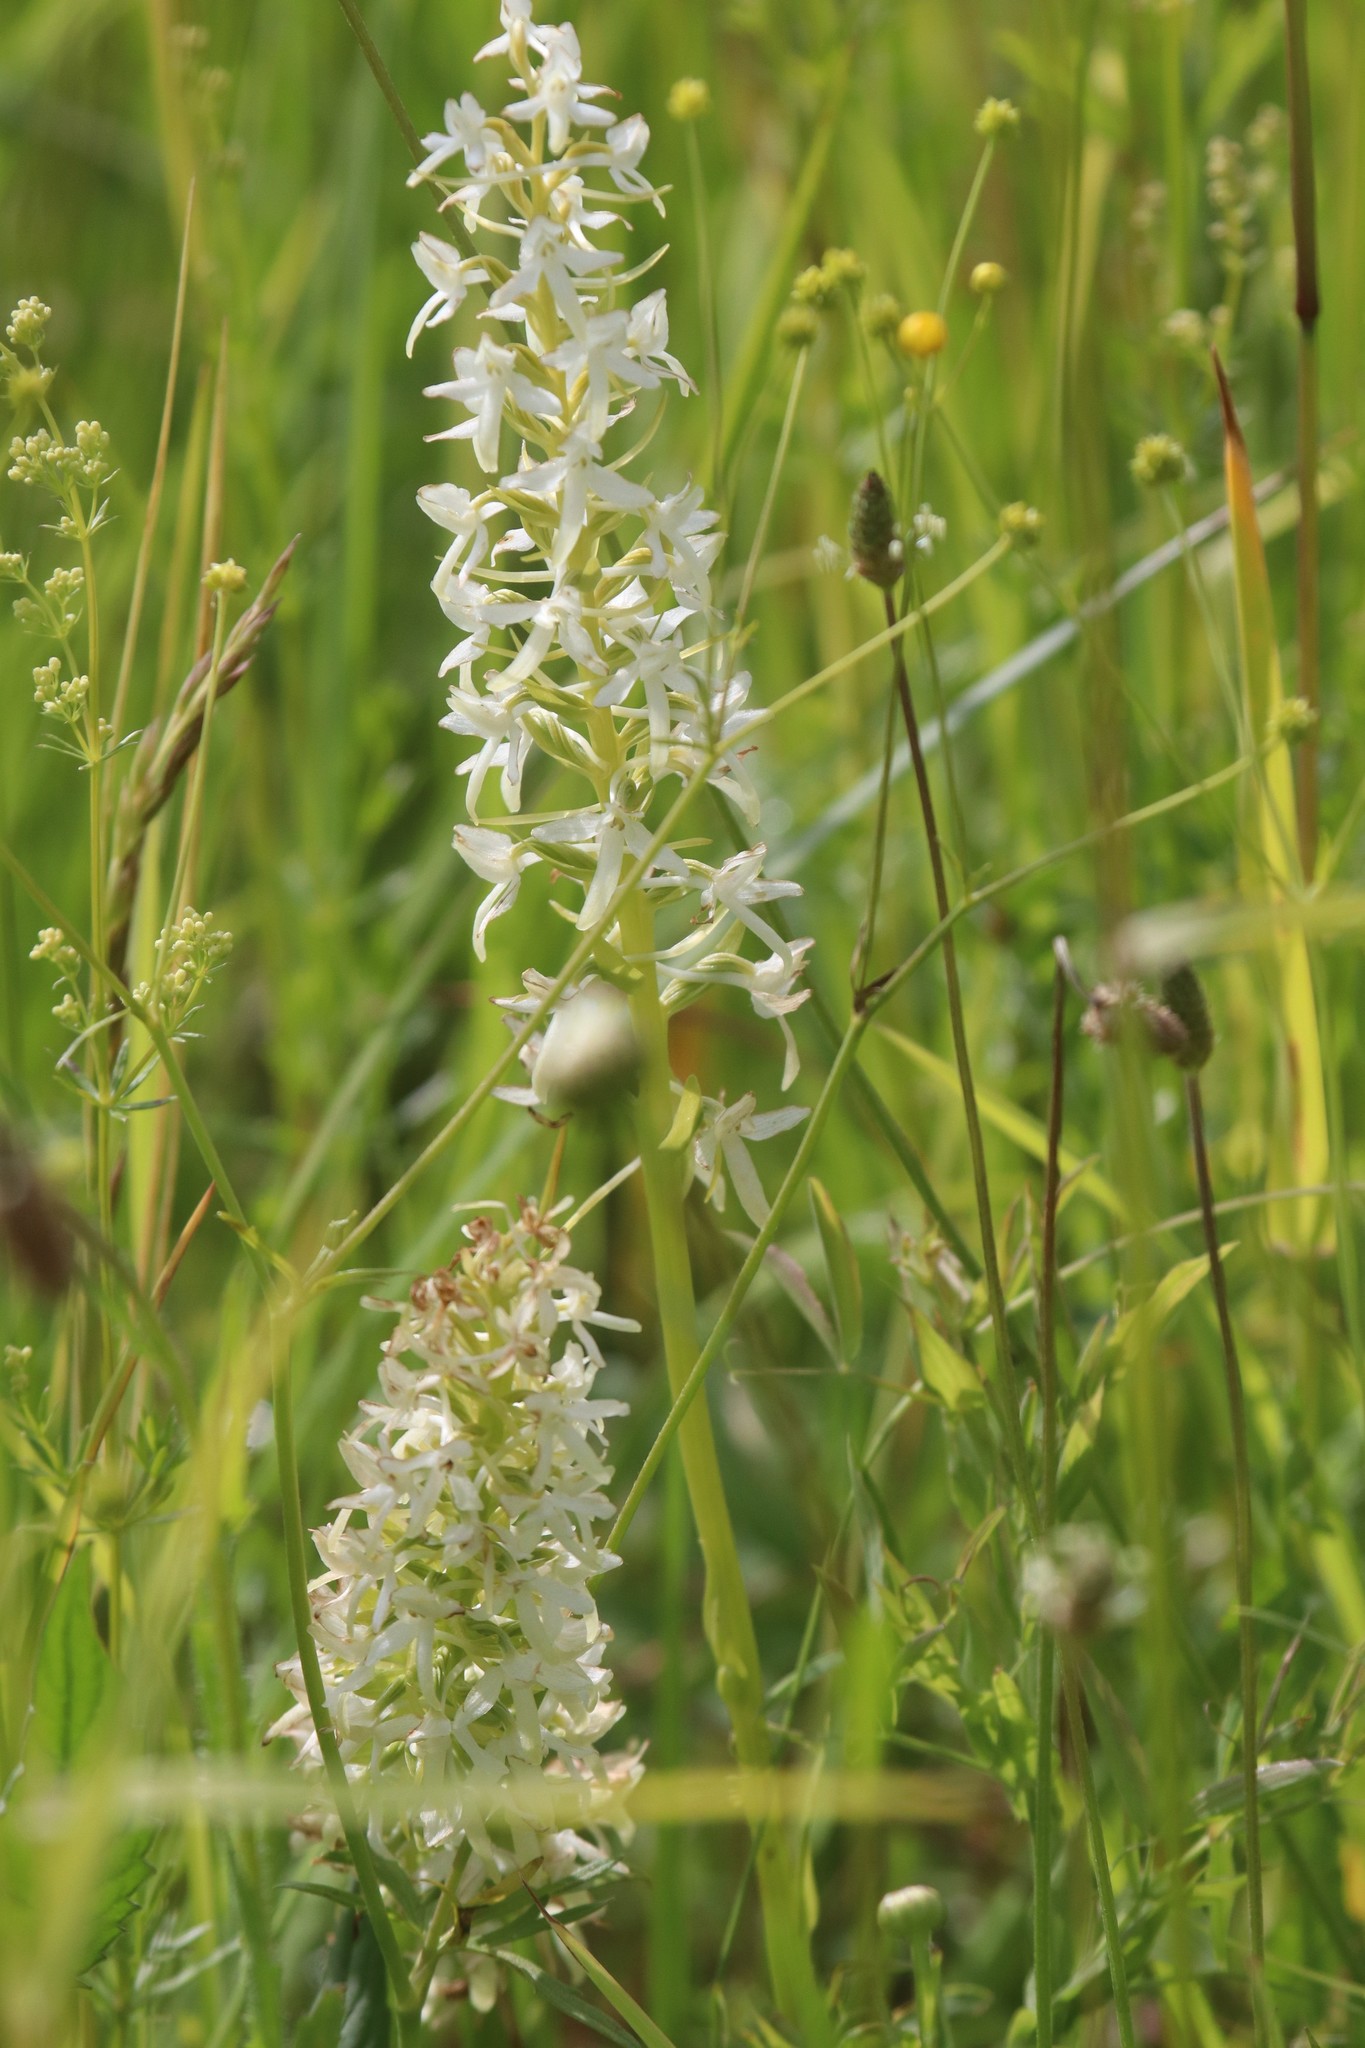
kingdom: Plantae
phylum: Tracheophyta
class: Liliopsida
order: Asparagales
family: Orchidaceae
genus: Platanthera
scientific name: Platanthera bifolia
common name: Lesser butterfly-orchid
